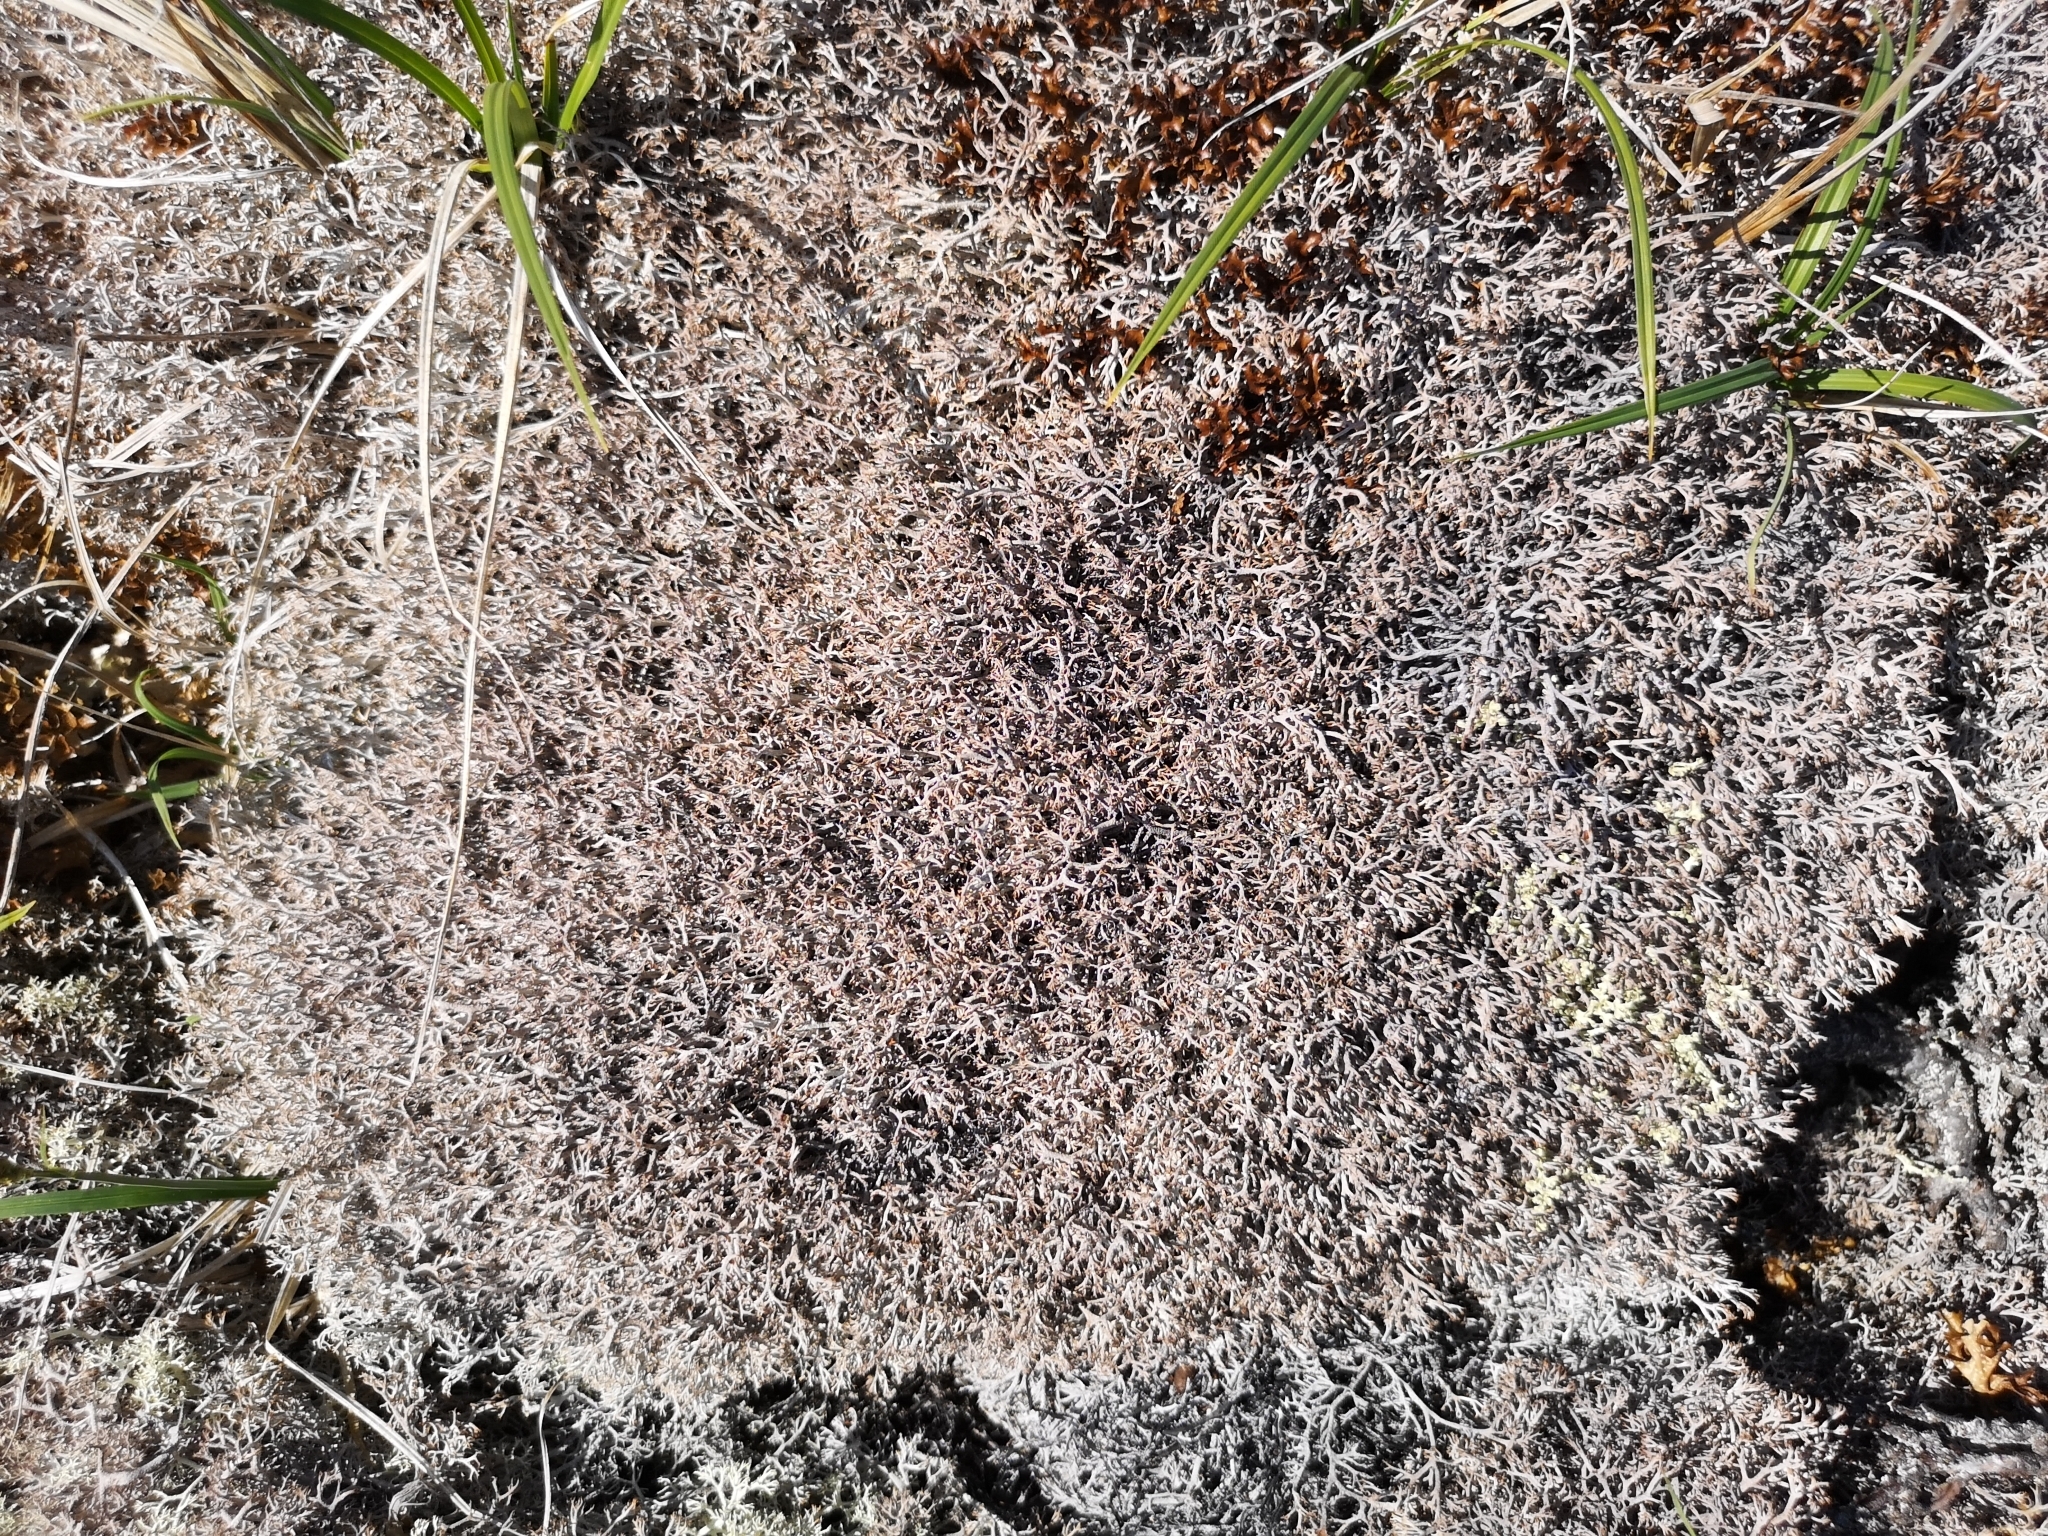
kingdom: Fungi
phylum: Ascomycota
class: Lecanoromycetes
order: Lecanorales
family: Cladoniaceae
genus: Cladonia
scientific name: Cladonia rangiferina
